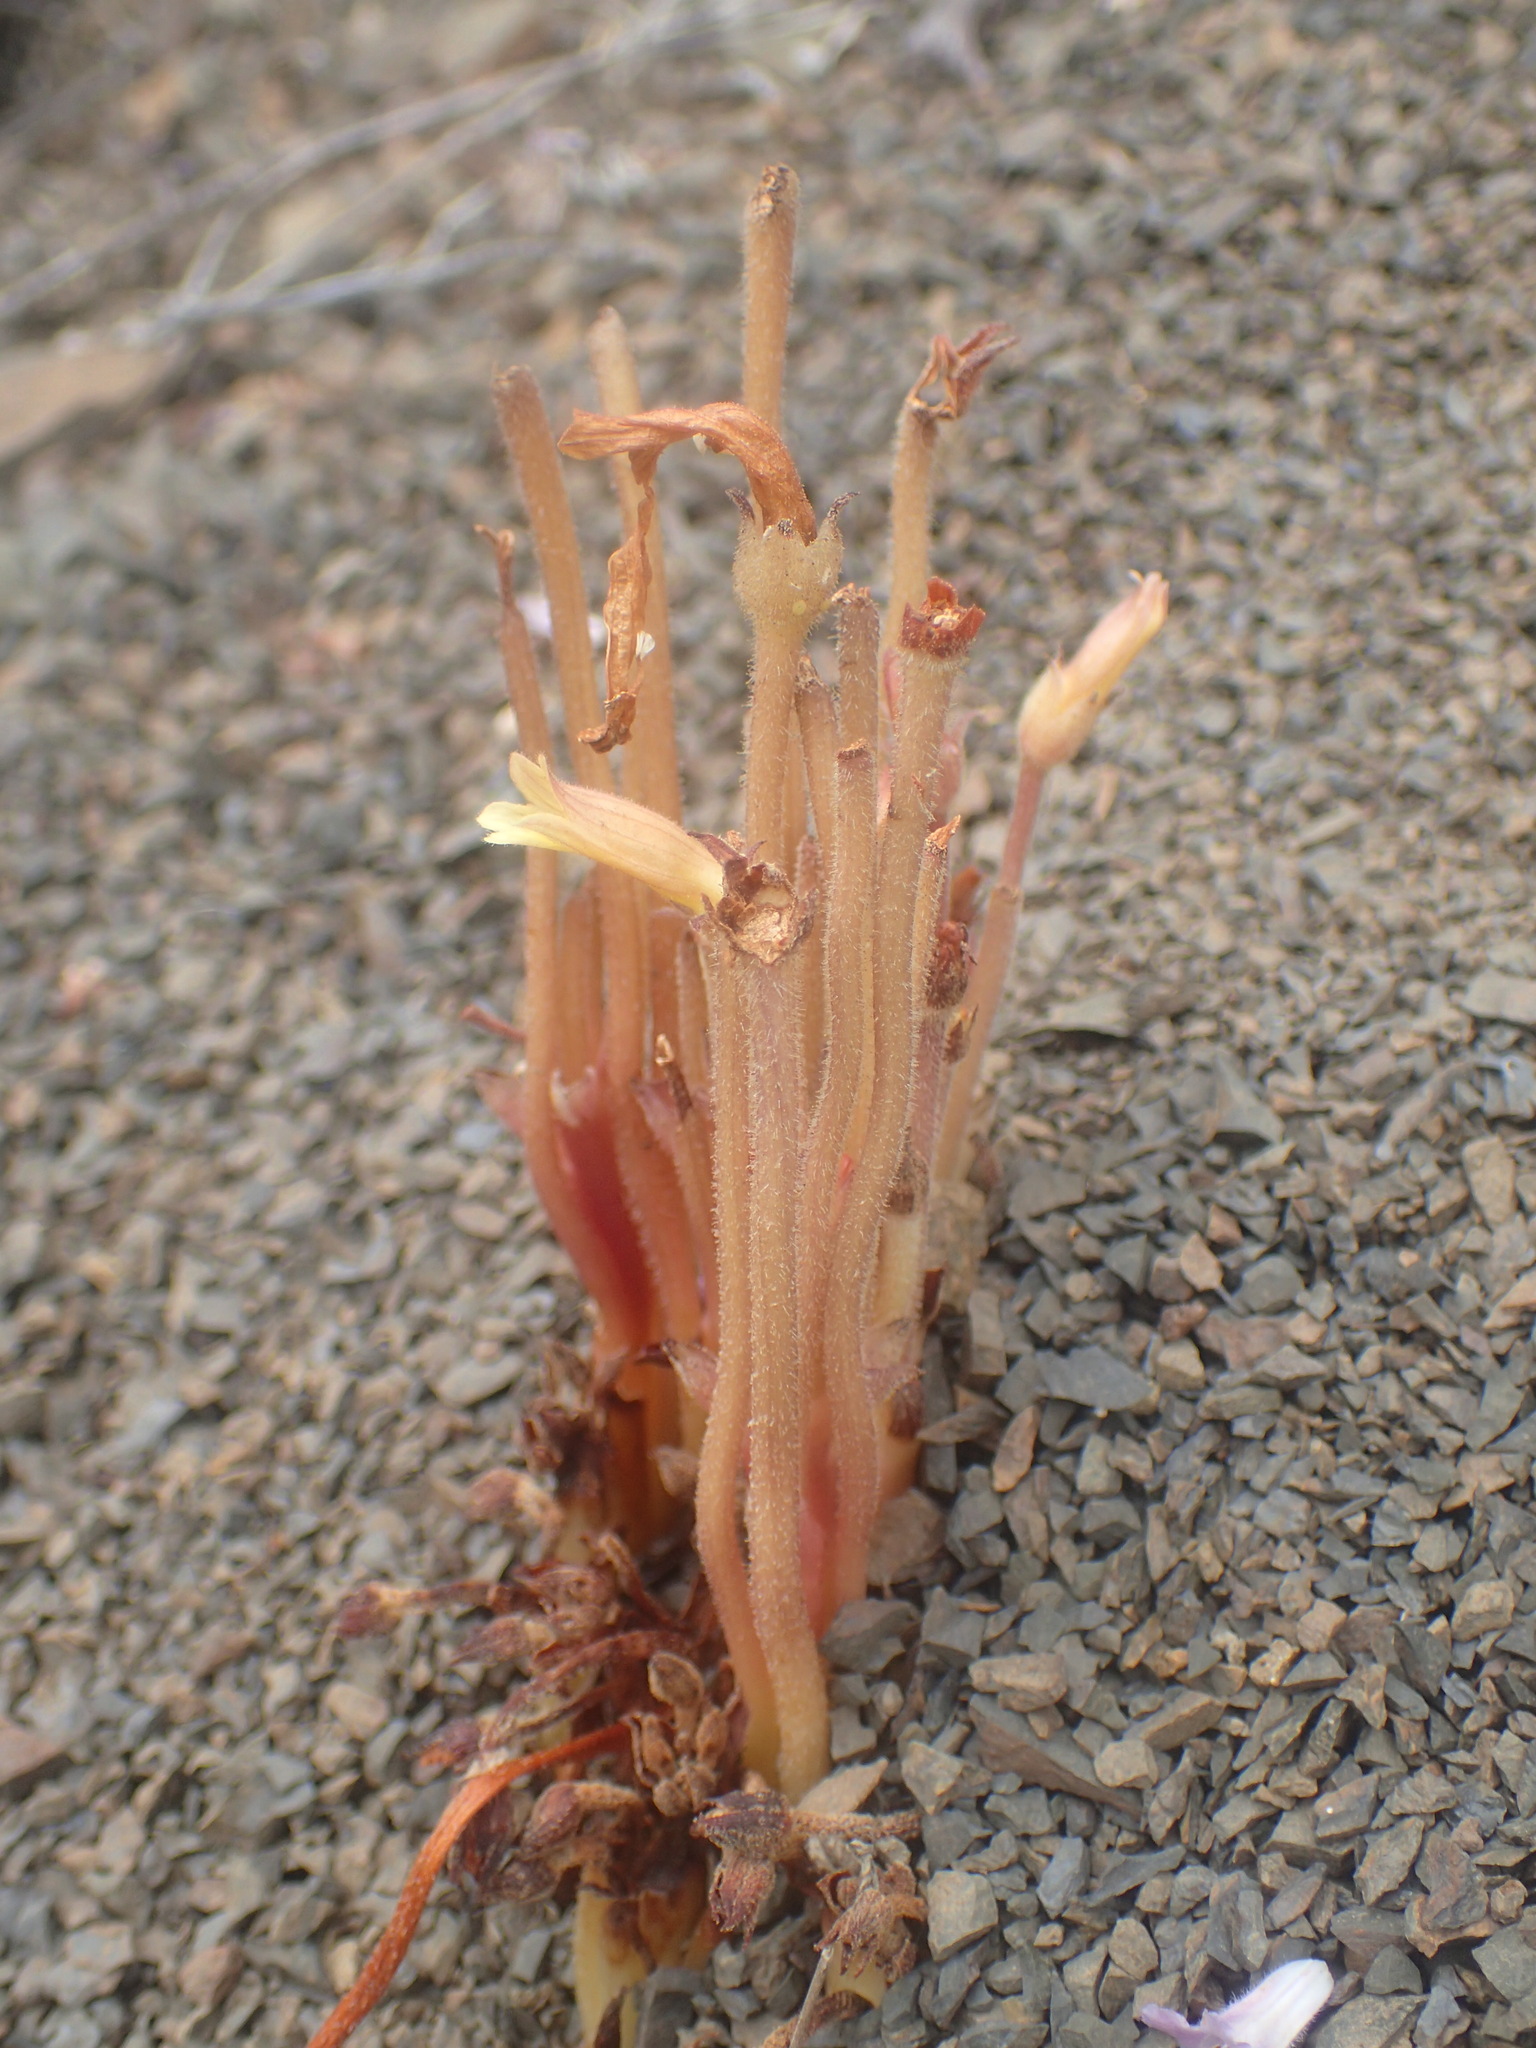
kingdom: Plantae
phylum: Tracheophyta
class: Magnoliopsida
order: Lamiales
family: Orobanchaceae
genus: Aphyllon
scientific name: Aphyllon franciscanum
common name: San francisco broomrape
